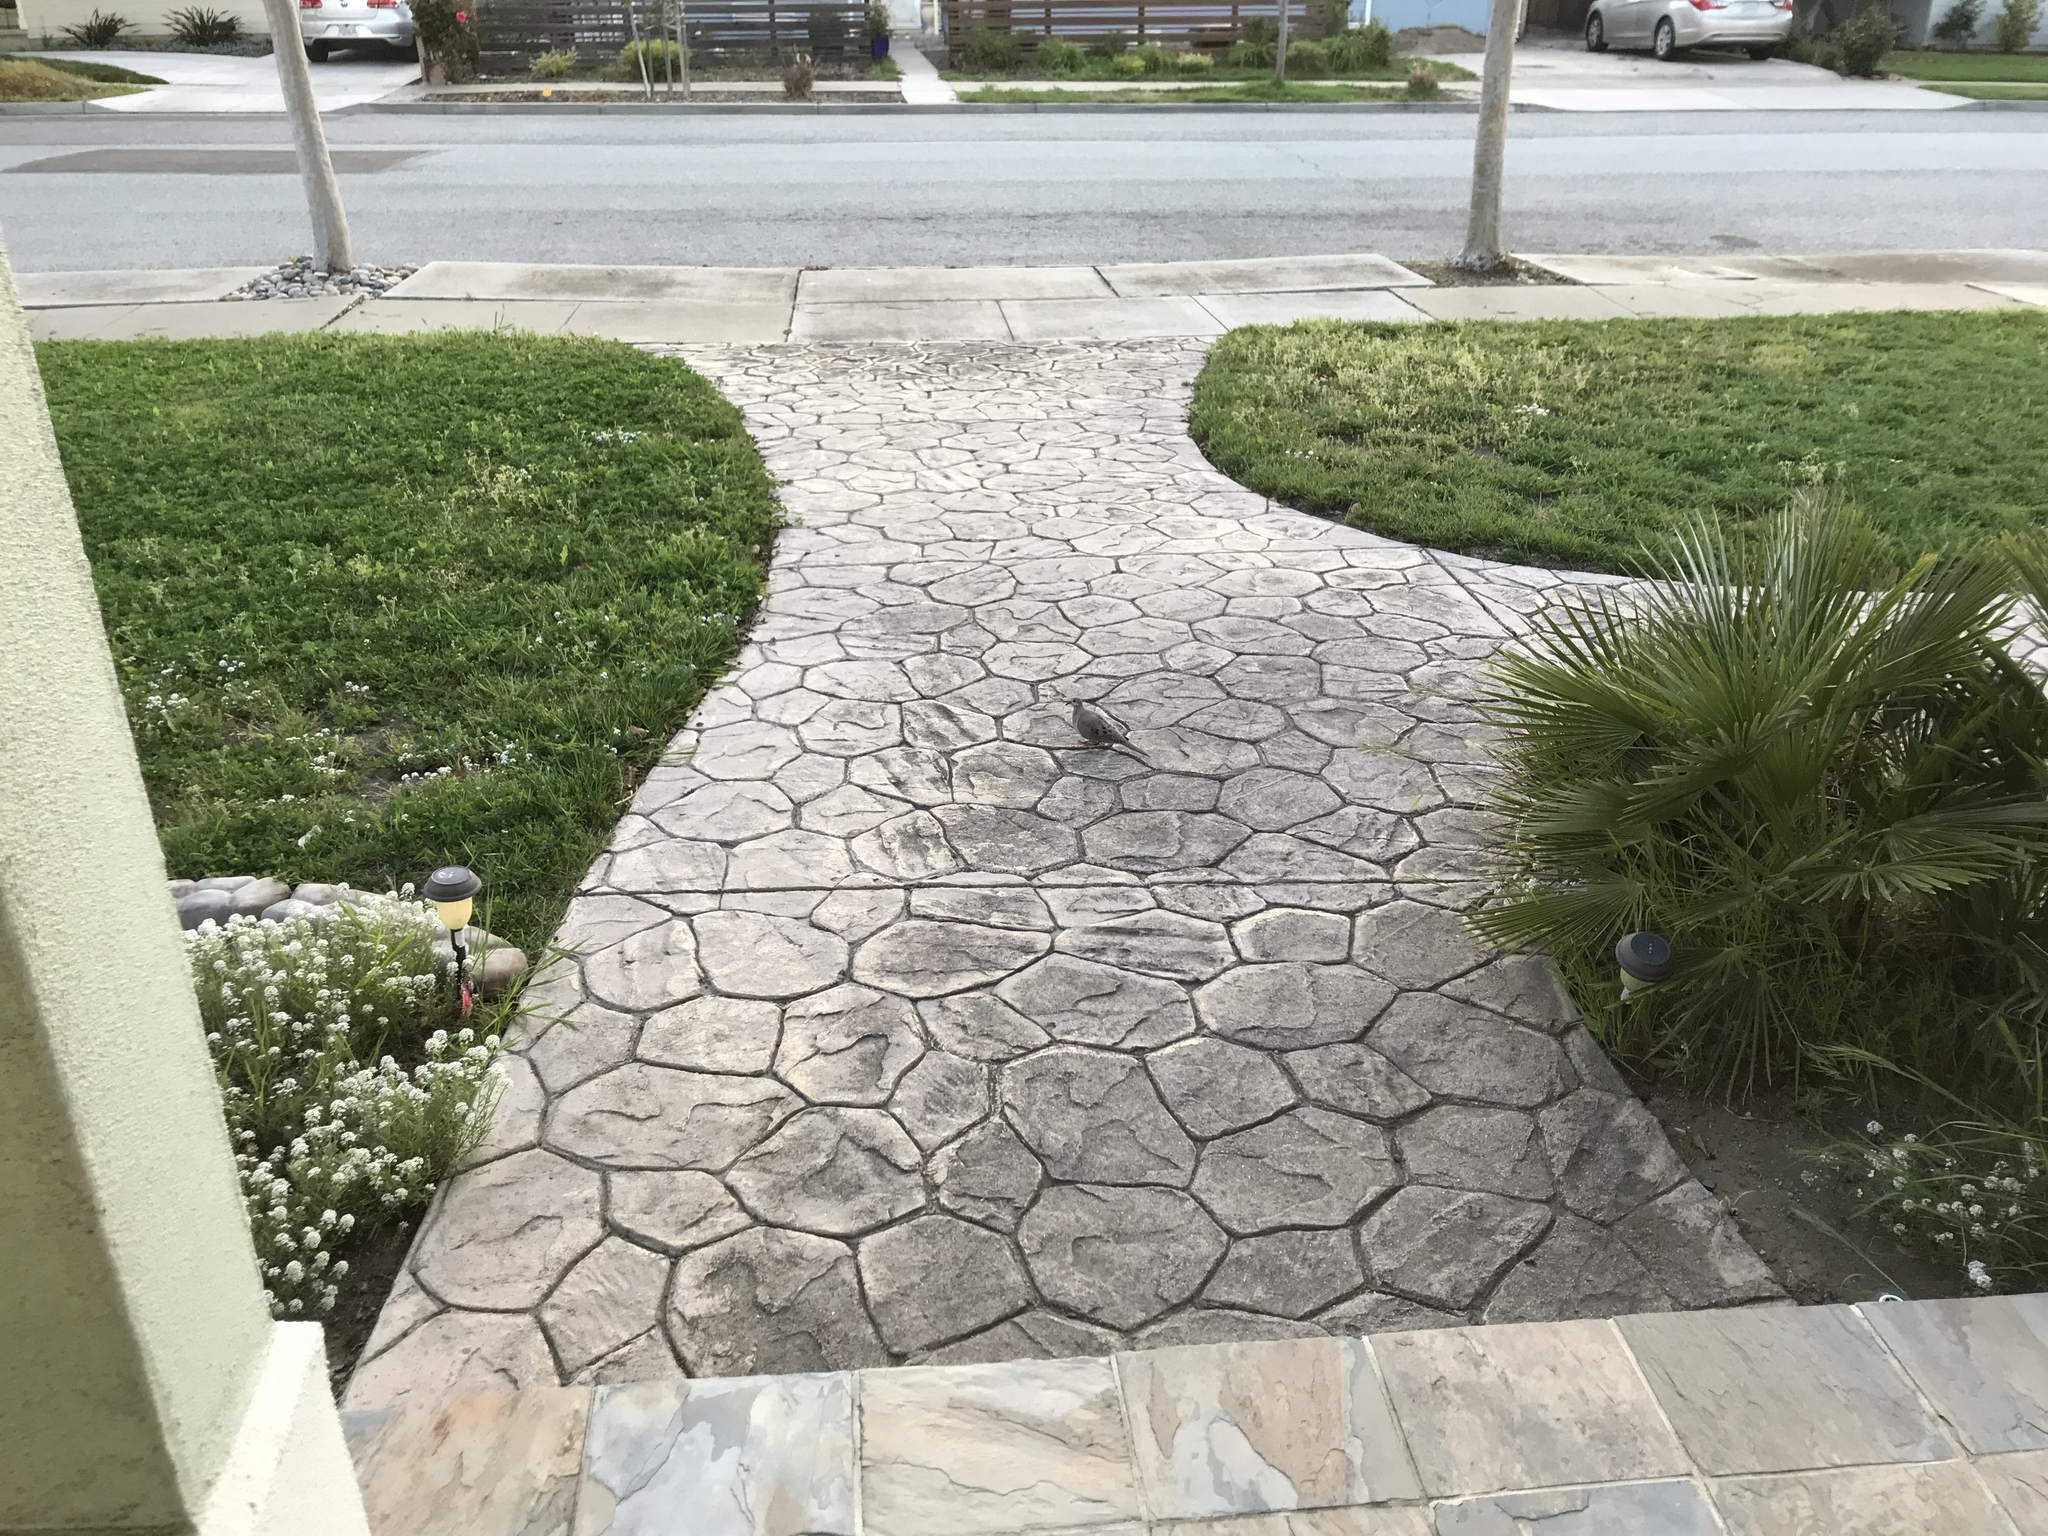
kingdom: Animalia
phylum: Chordata
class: Aves
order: Columbiformes
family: Columbidae
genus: Zenaida
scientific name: Zenaida macroura
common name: Mourning dove
